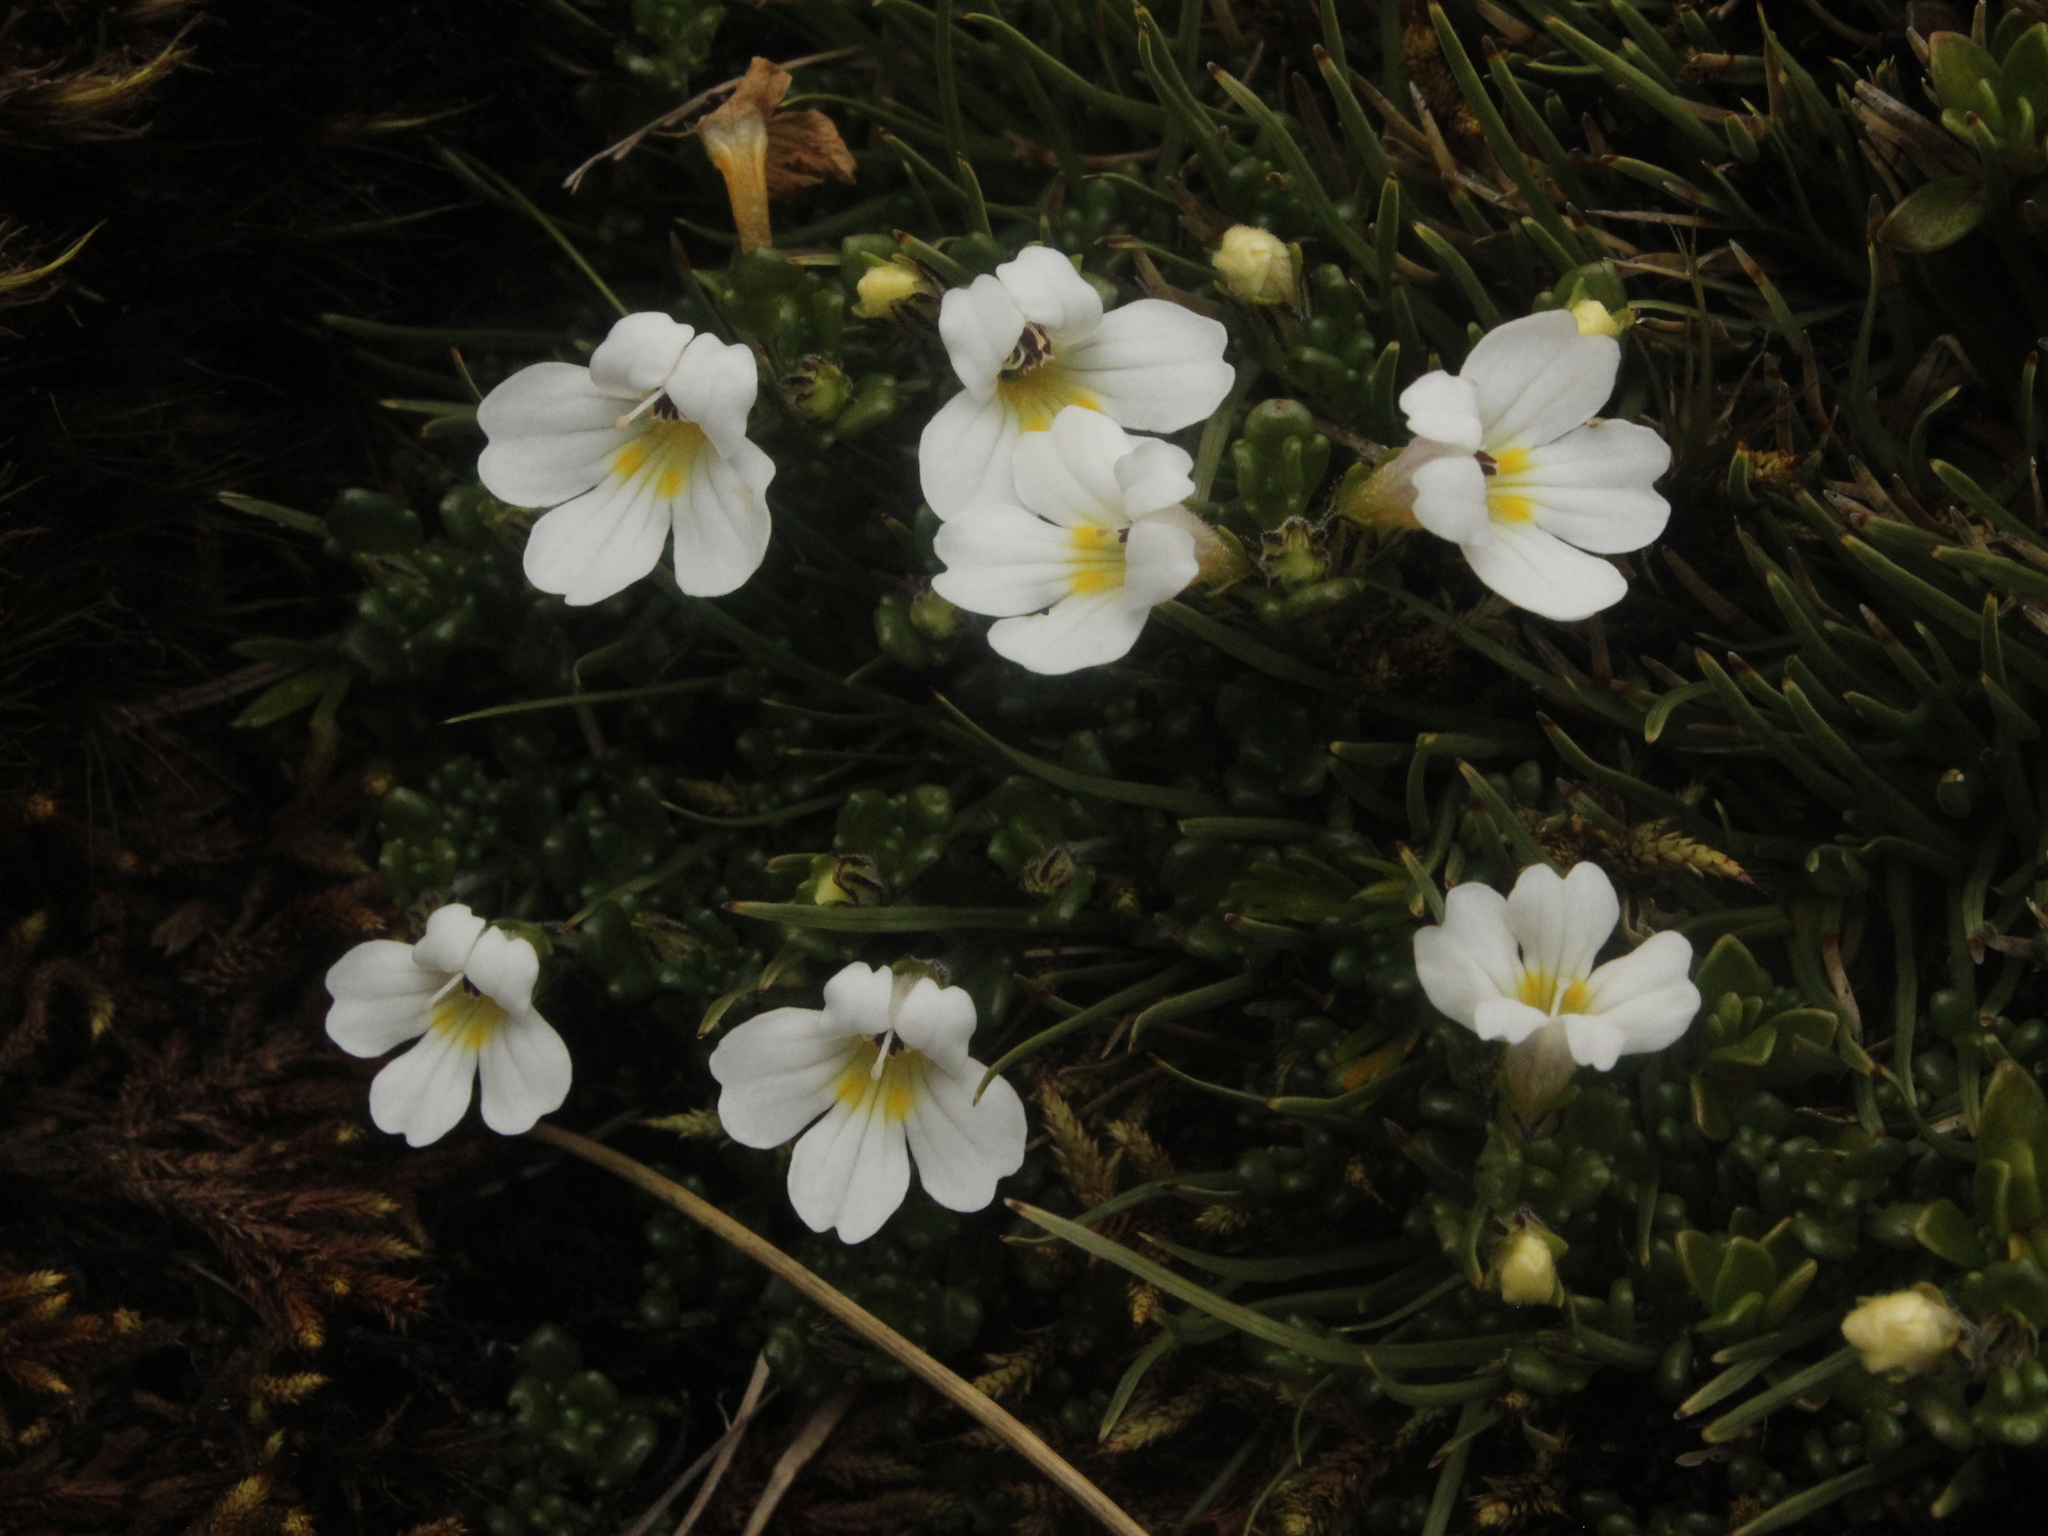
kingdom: Plantae
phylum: Tracheophyta
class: Magnoliopsida
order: Lamiales
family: Orobanchaceae
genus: Euphrasia
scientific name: Euphrasia revoluta
